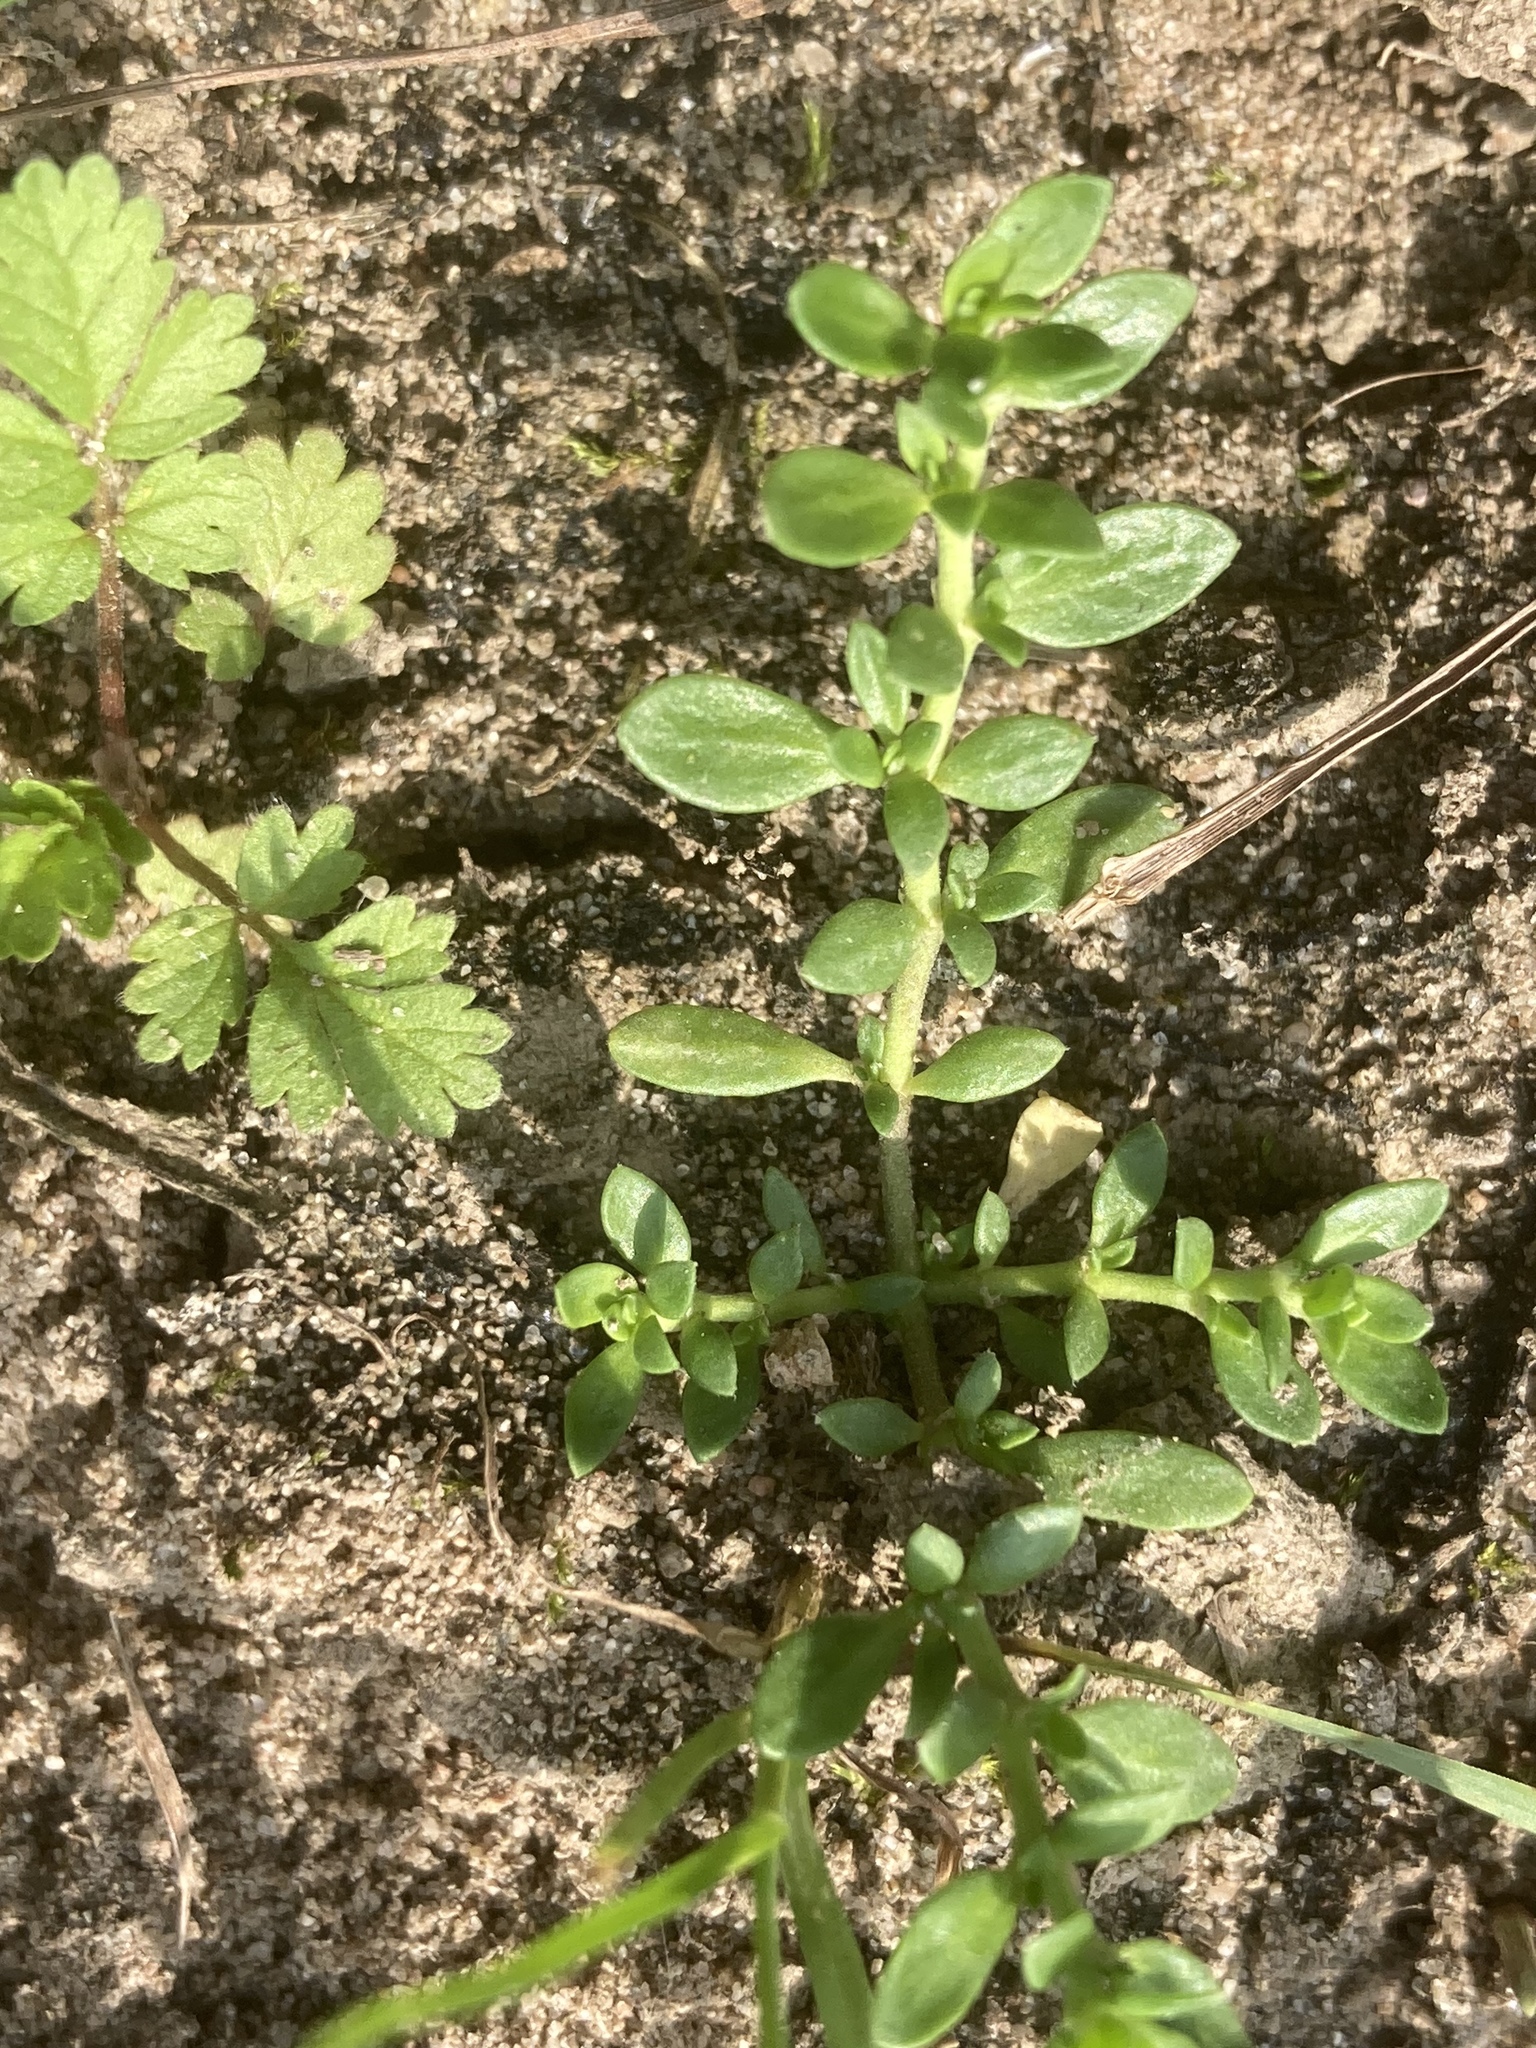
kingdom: Plantae
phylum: Tracheophyta
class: Magnoliopsida
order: Caryophyllales
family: Caryophyllaceae
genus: Herniaria
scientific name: Herniaria glabra
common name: Smooth rupturewort
